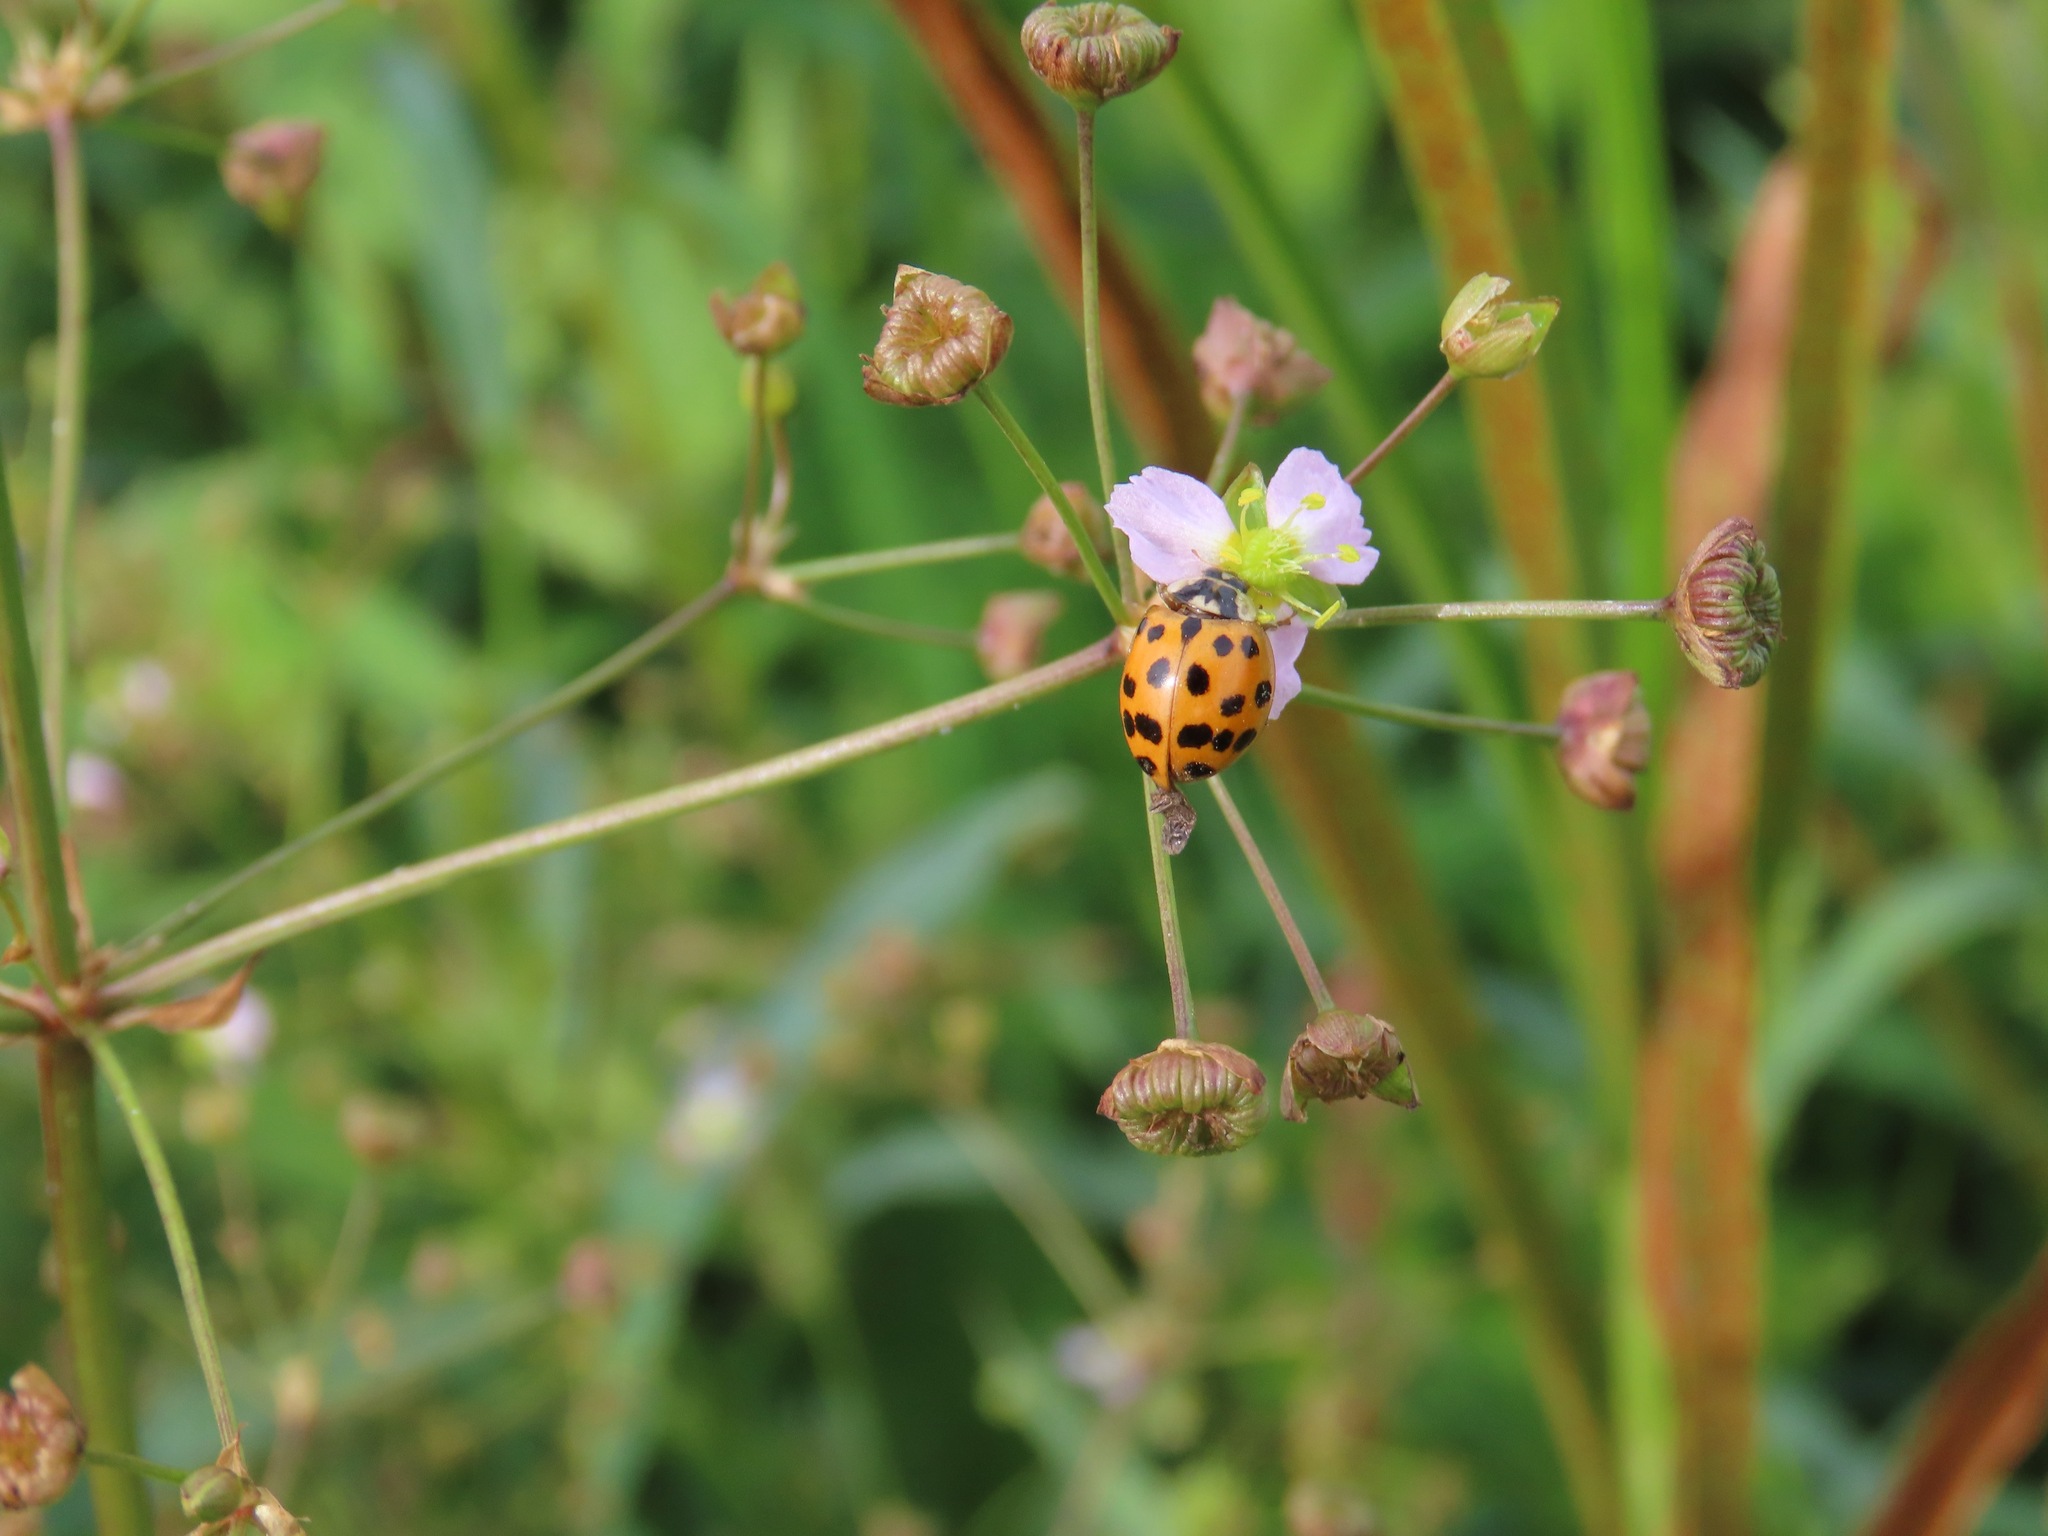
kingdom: Animalia
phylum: Arthropoda
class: Insecta
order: Coleoptera
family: Coccinellidae
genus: Harmonia
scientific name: Harmonia axyridis
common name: Harlequin ladybird
